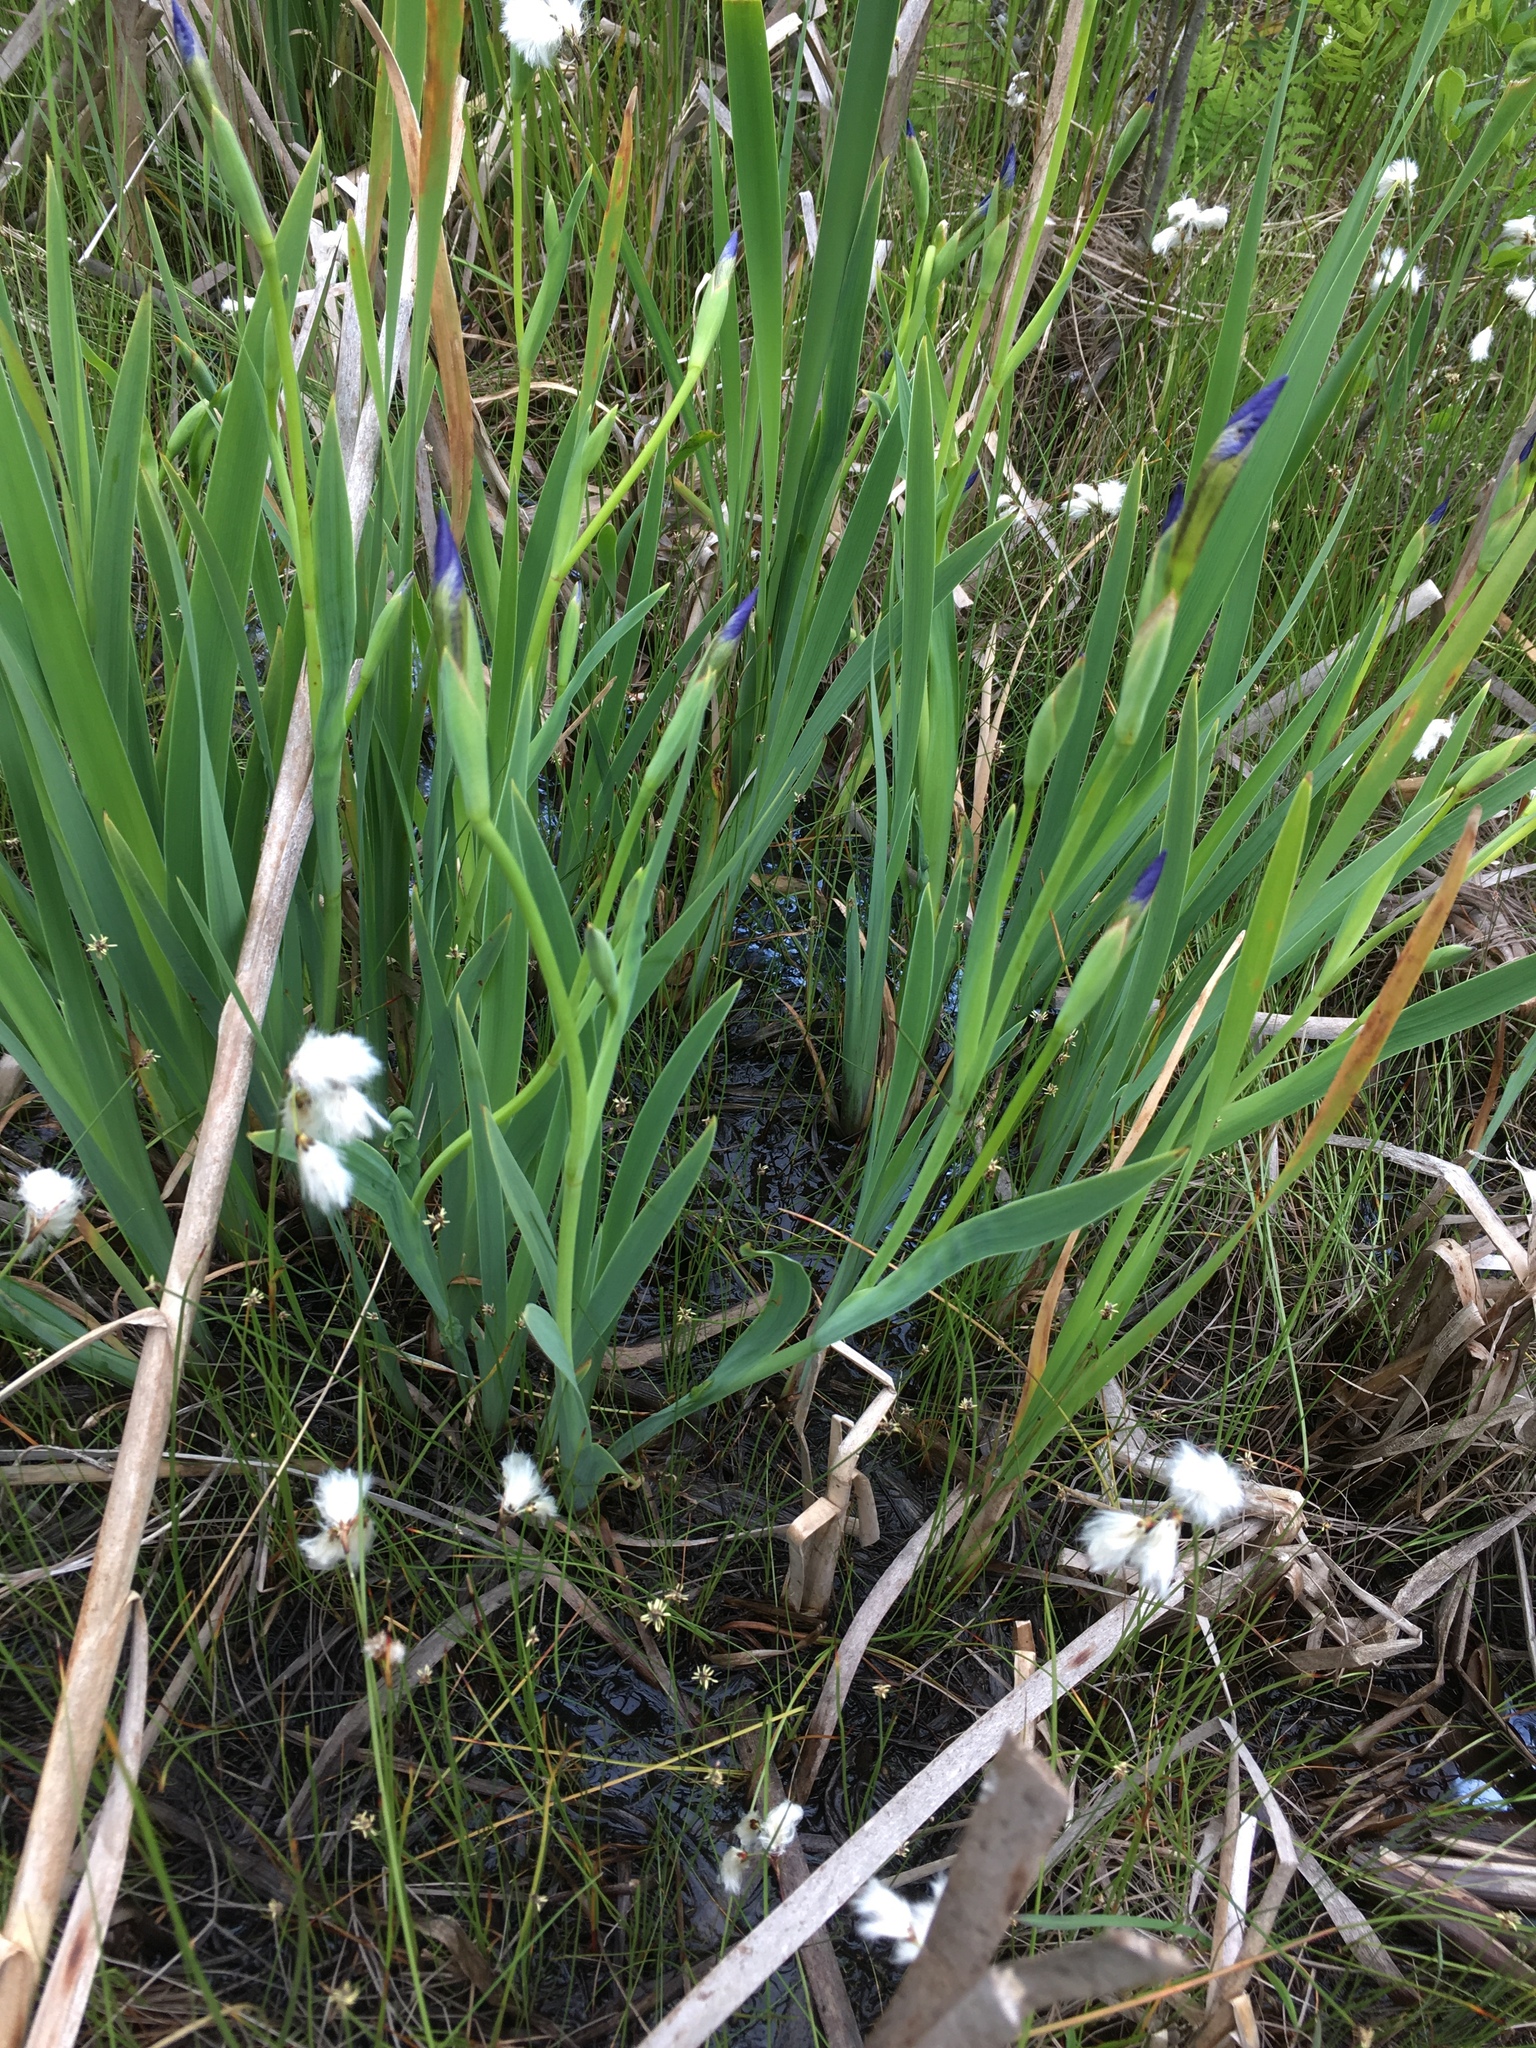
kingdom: Plantae
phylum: Tracheophyta
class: Liliopsida
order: Asparagales
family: Iridaceae
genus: Iris
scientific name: Iris versicolor
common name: Purple iris
